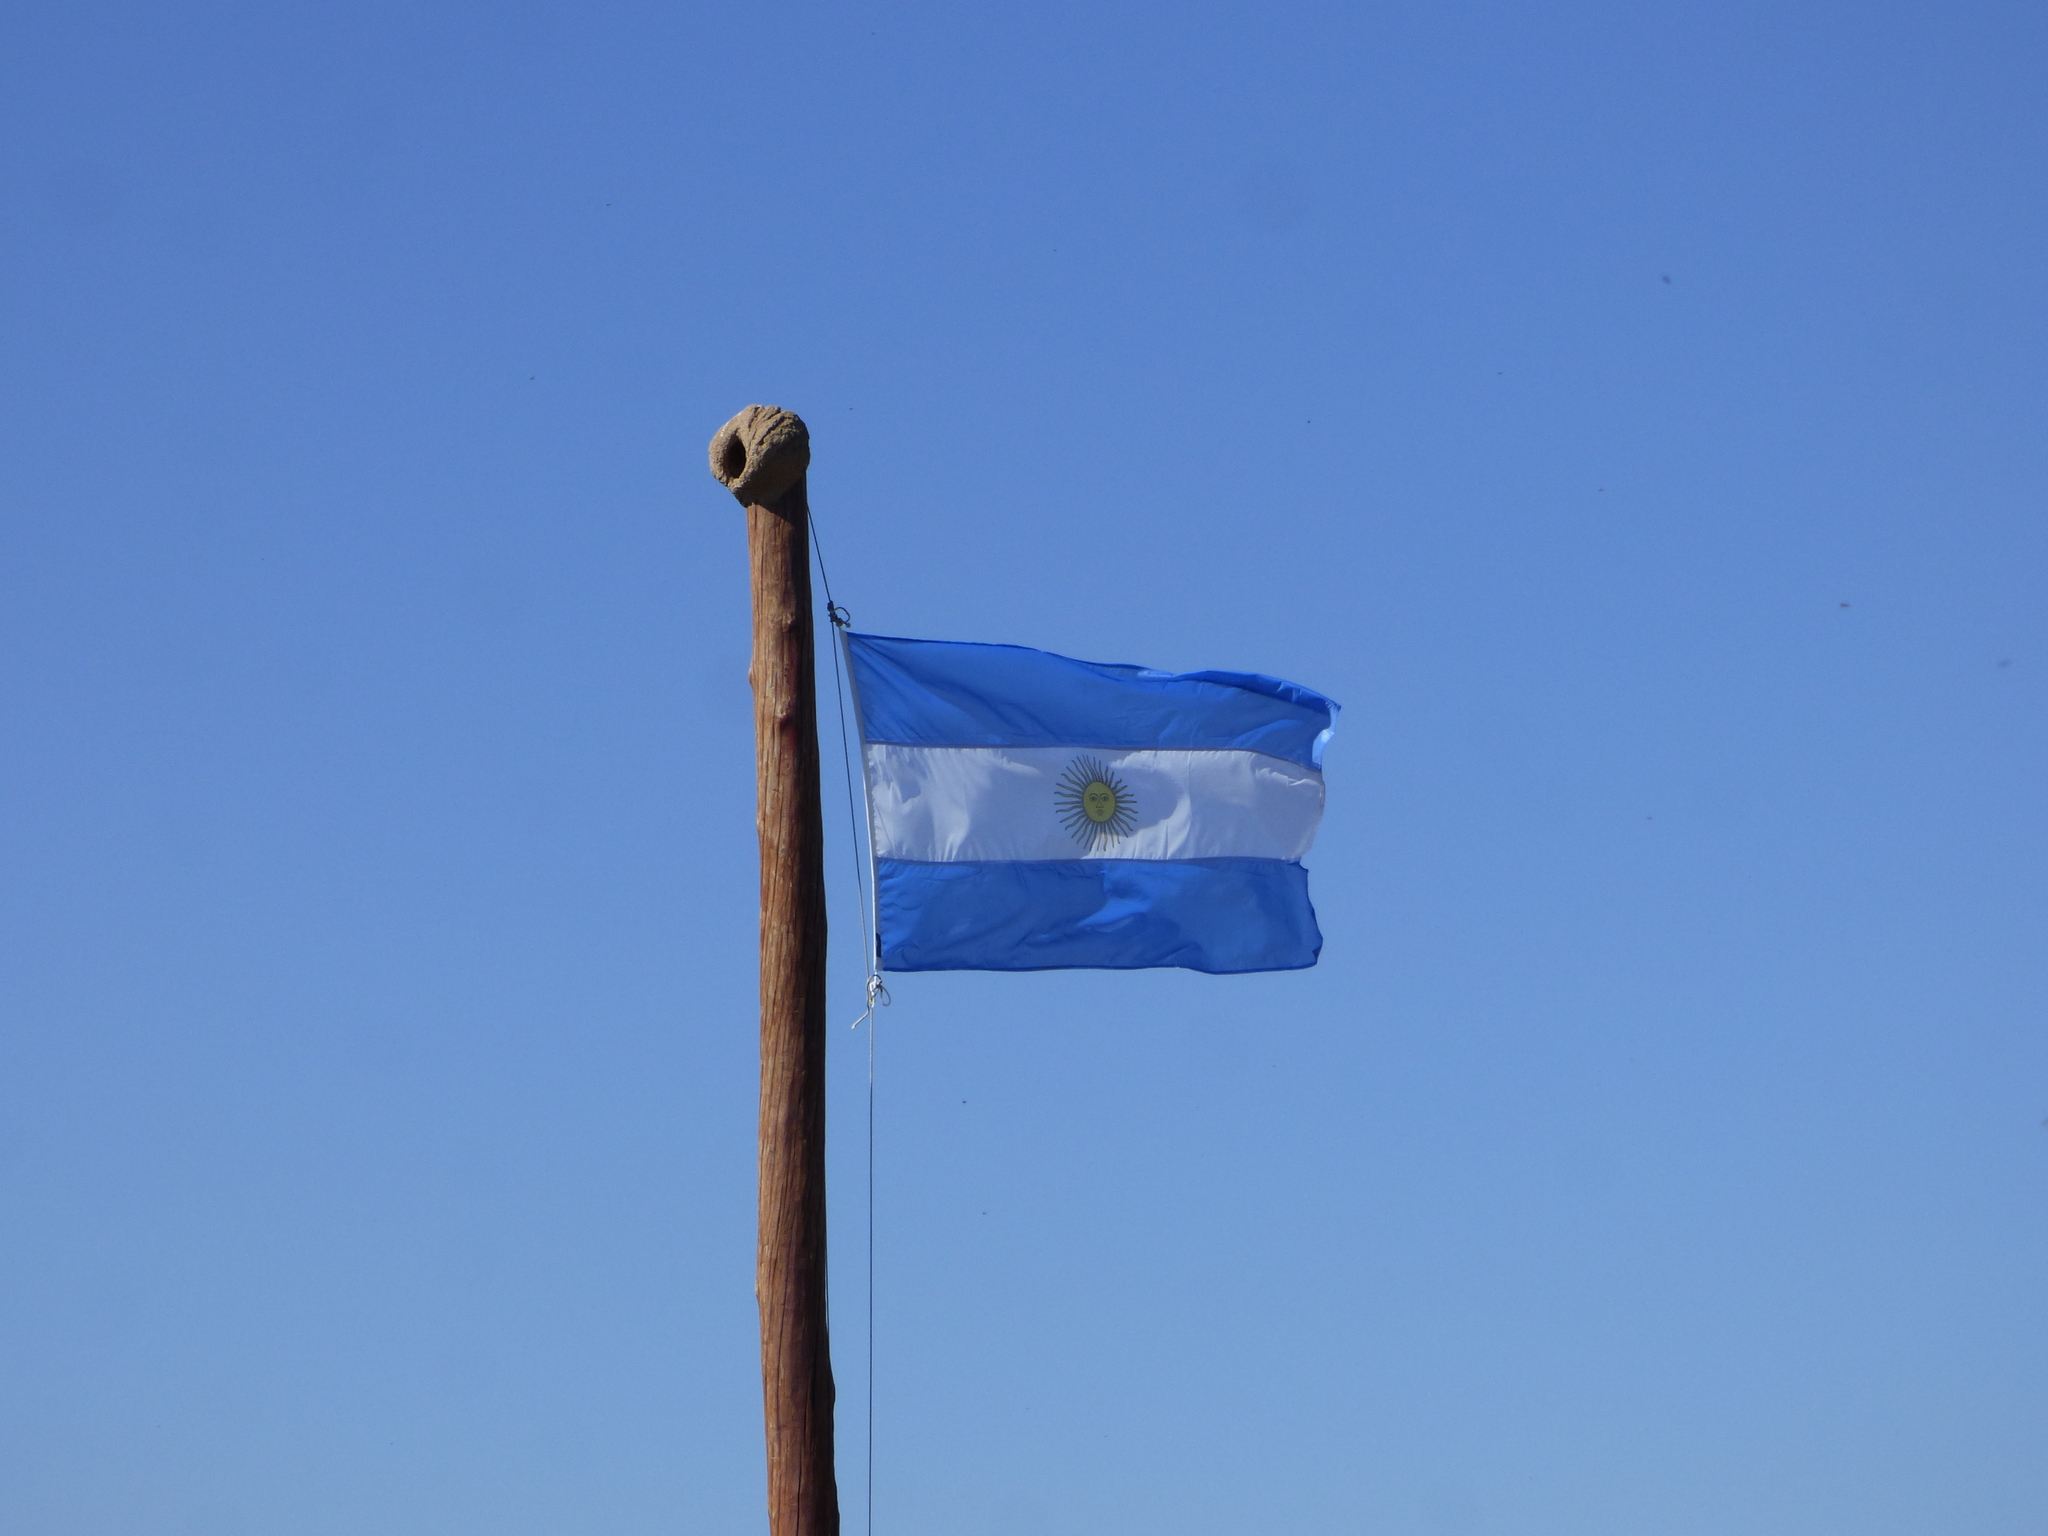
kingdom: Animalia
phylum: Chordata
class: Aves
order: Passeriformes
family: Furnariidae
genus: Furnarius
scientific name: Furnarius rufus
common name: Rufous hornero
